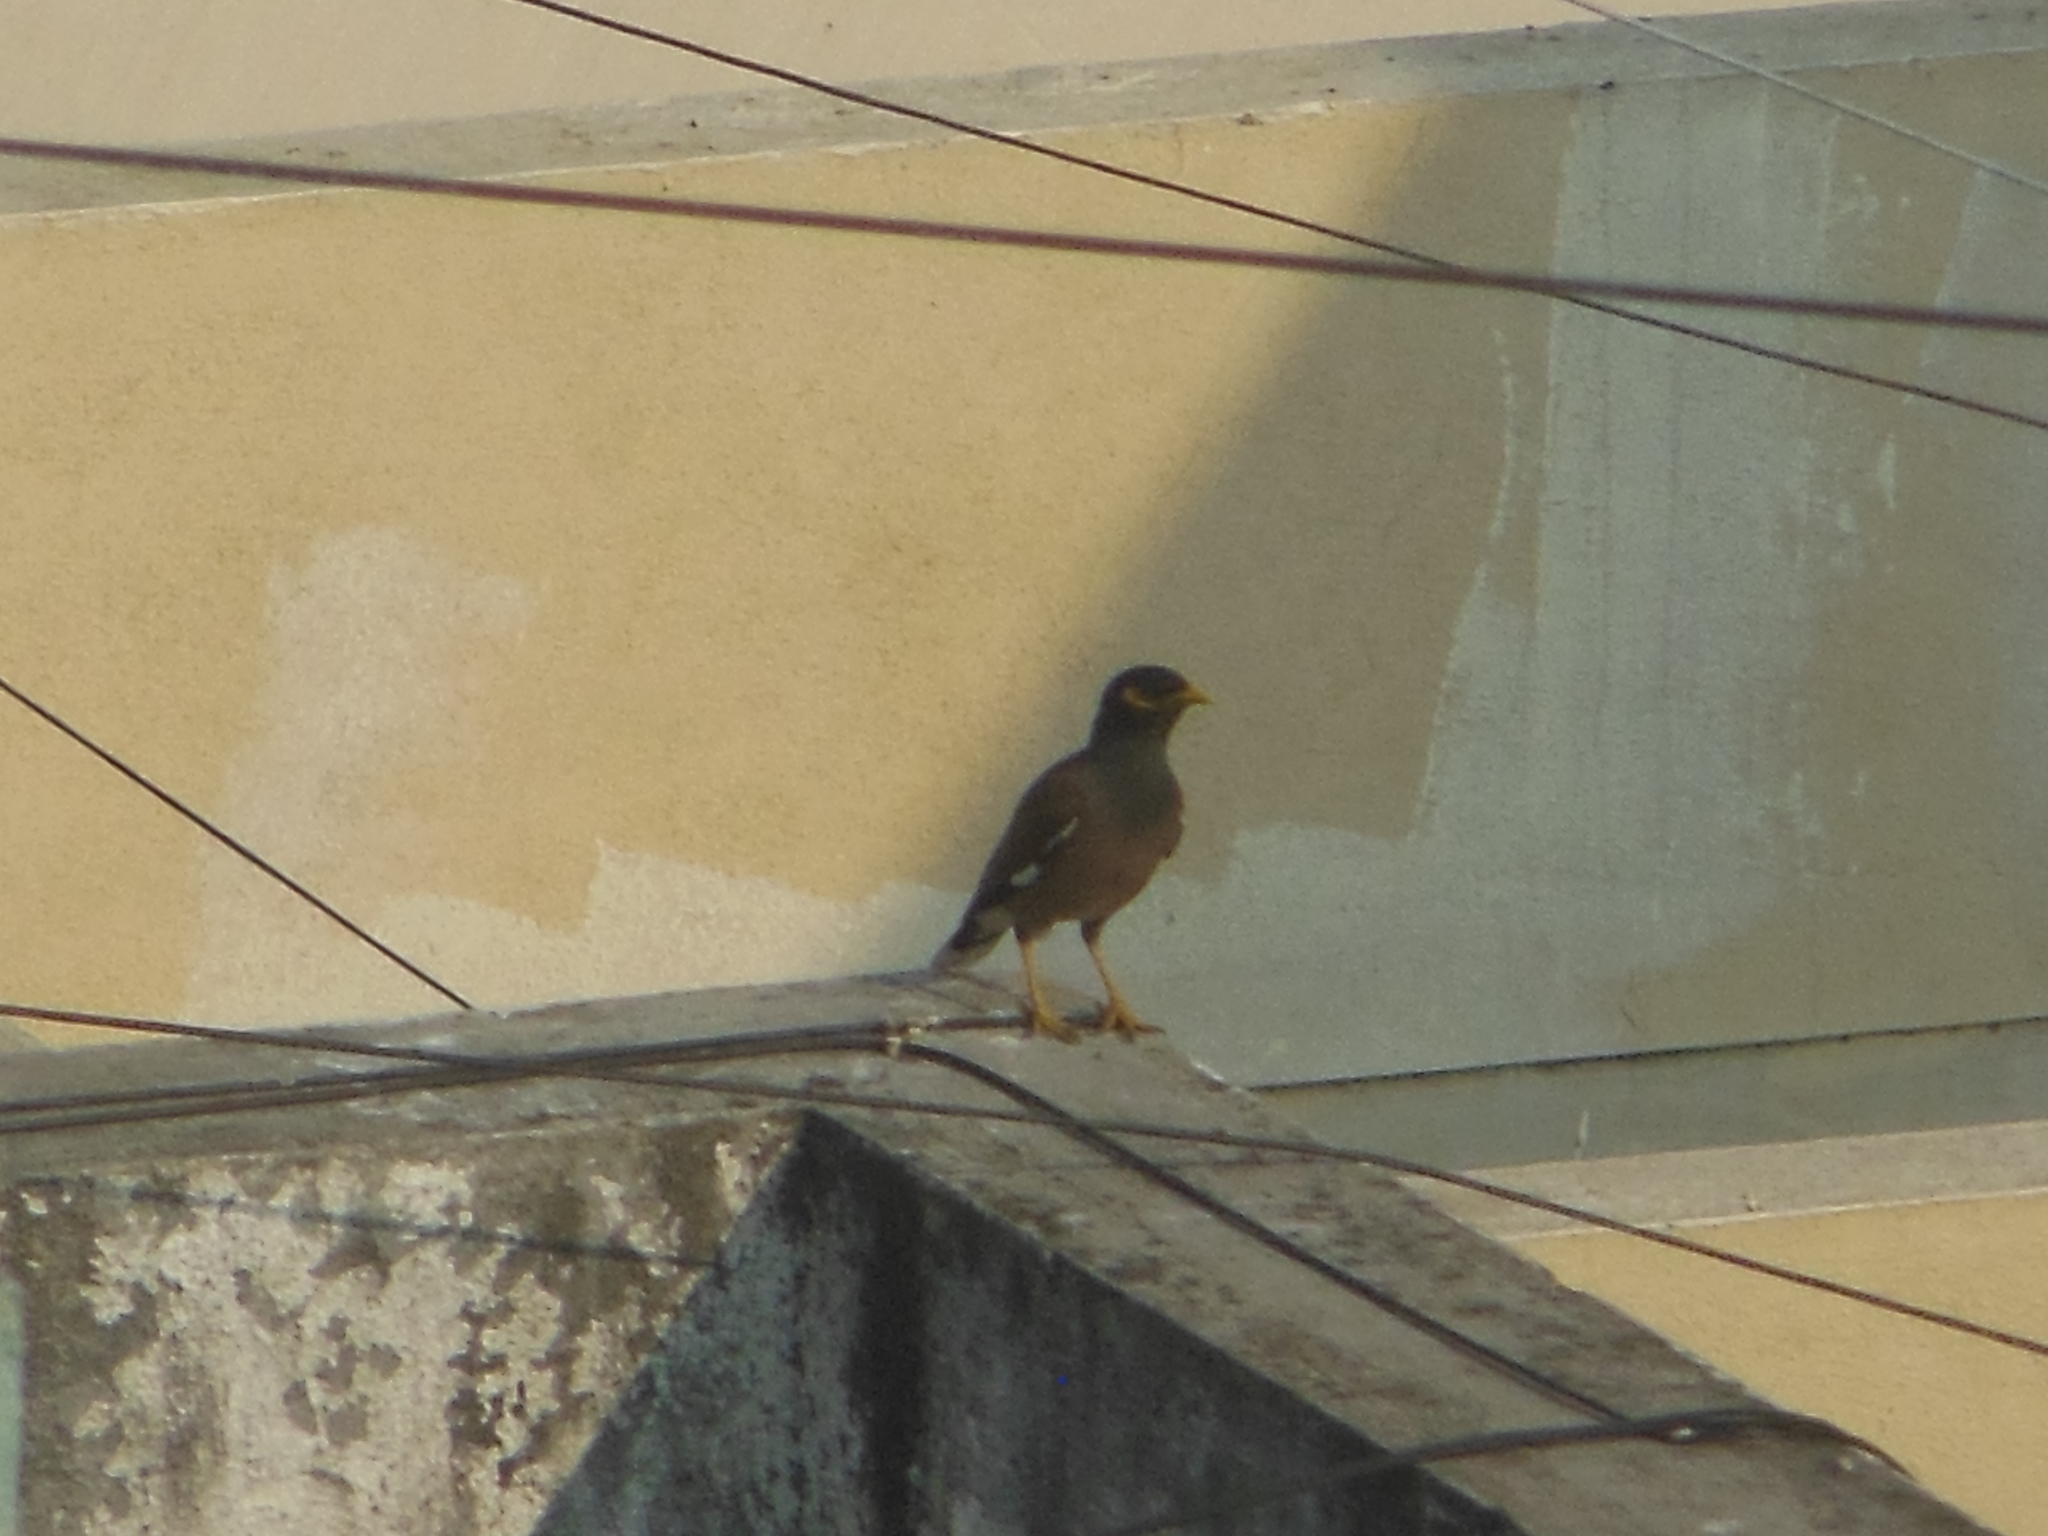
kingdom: Animalia
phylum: Chordata
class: Aves
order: Passeriformes
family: Sturnidae
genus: Acridotheres
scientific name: Acridotheres tristis
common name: Common myna
